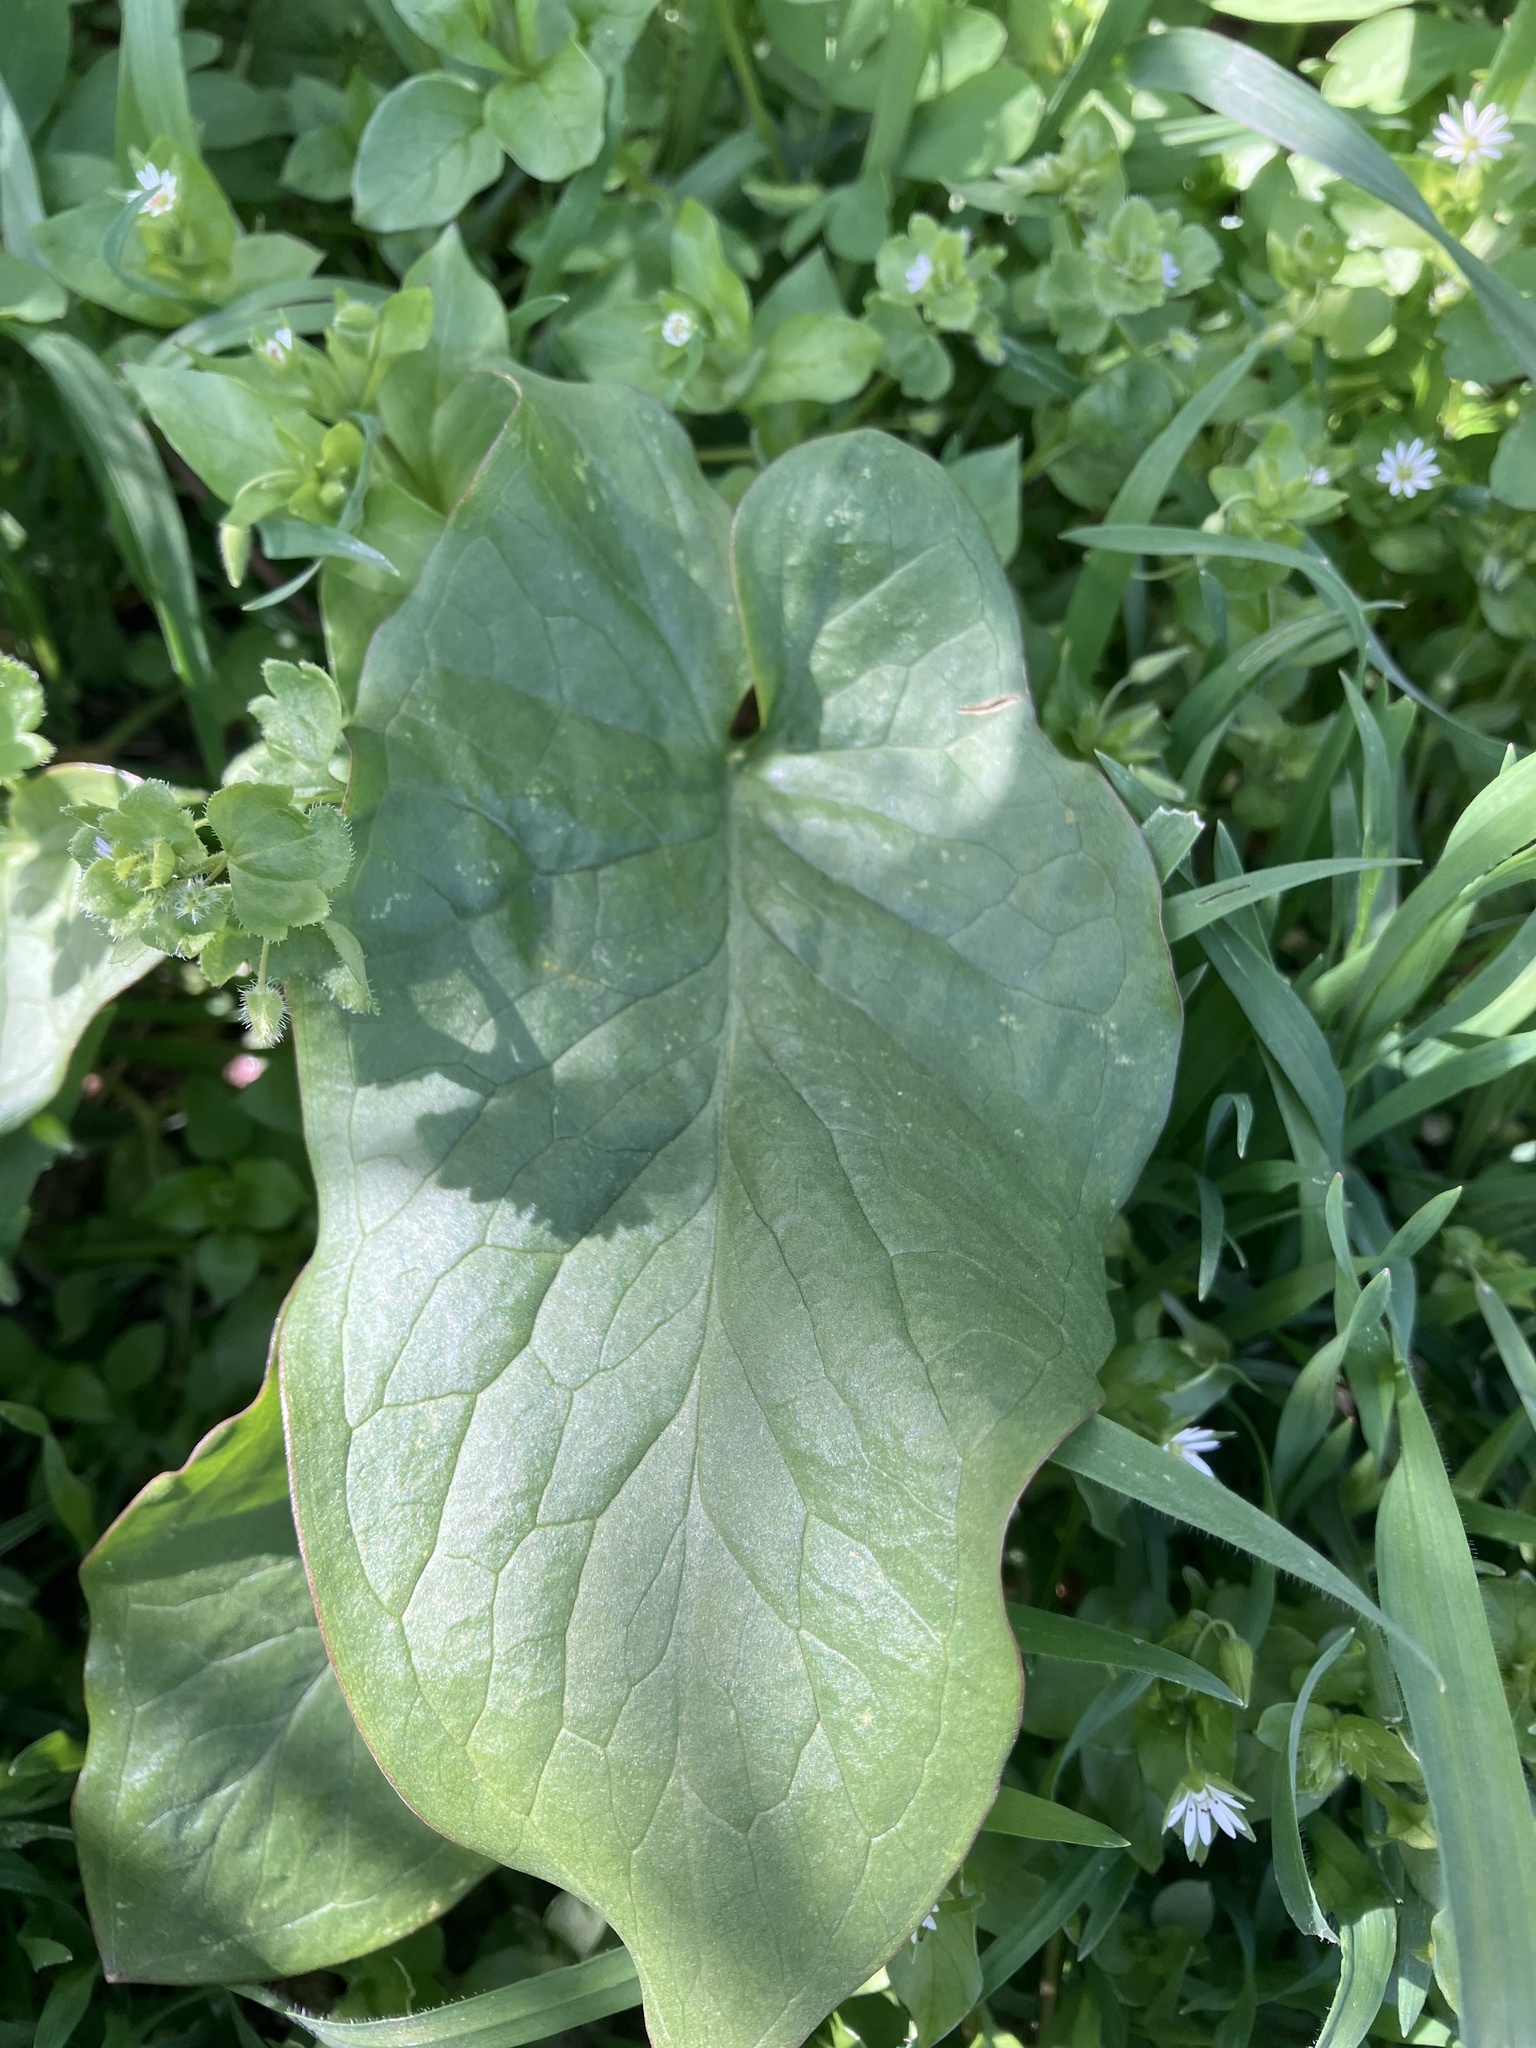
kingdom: Plantae
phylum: Tracheophyta
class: Liliopsida
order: Alismatales
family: Araceae
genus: Arum
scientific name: Arum cylindraceum
